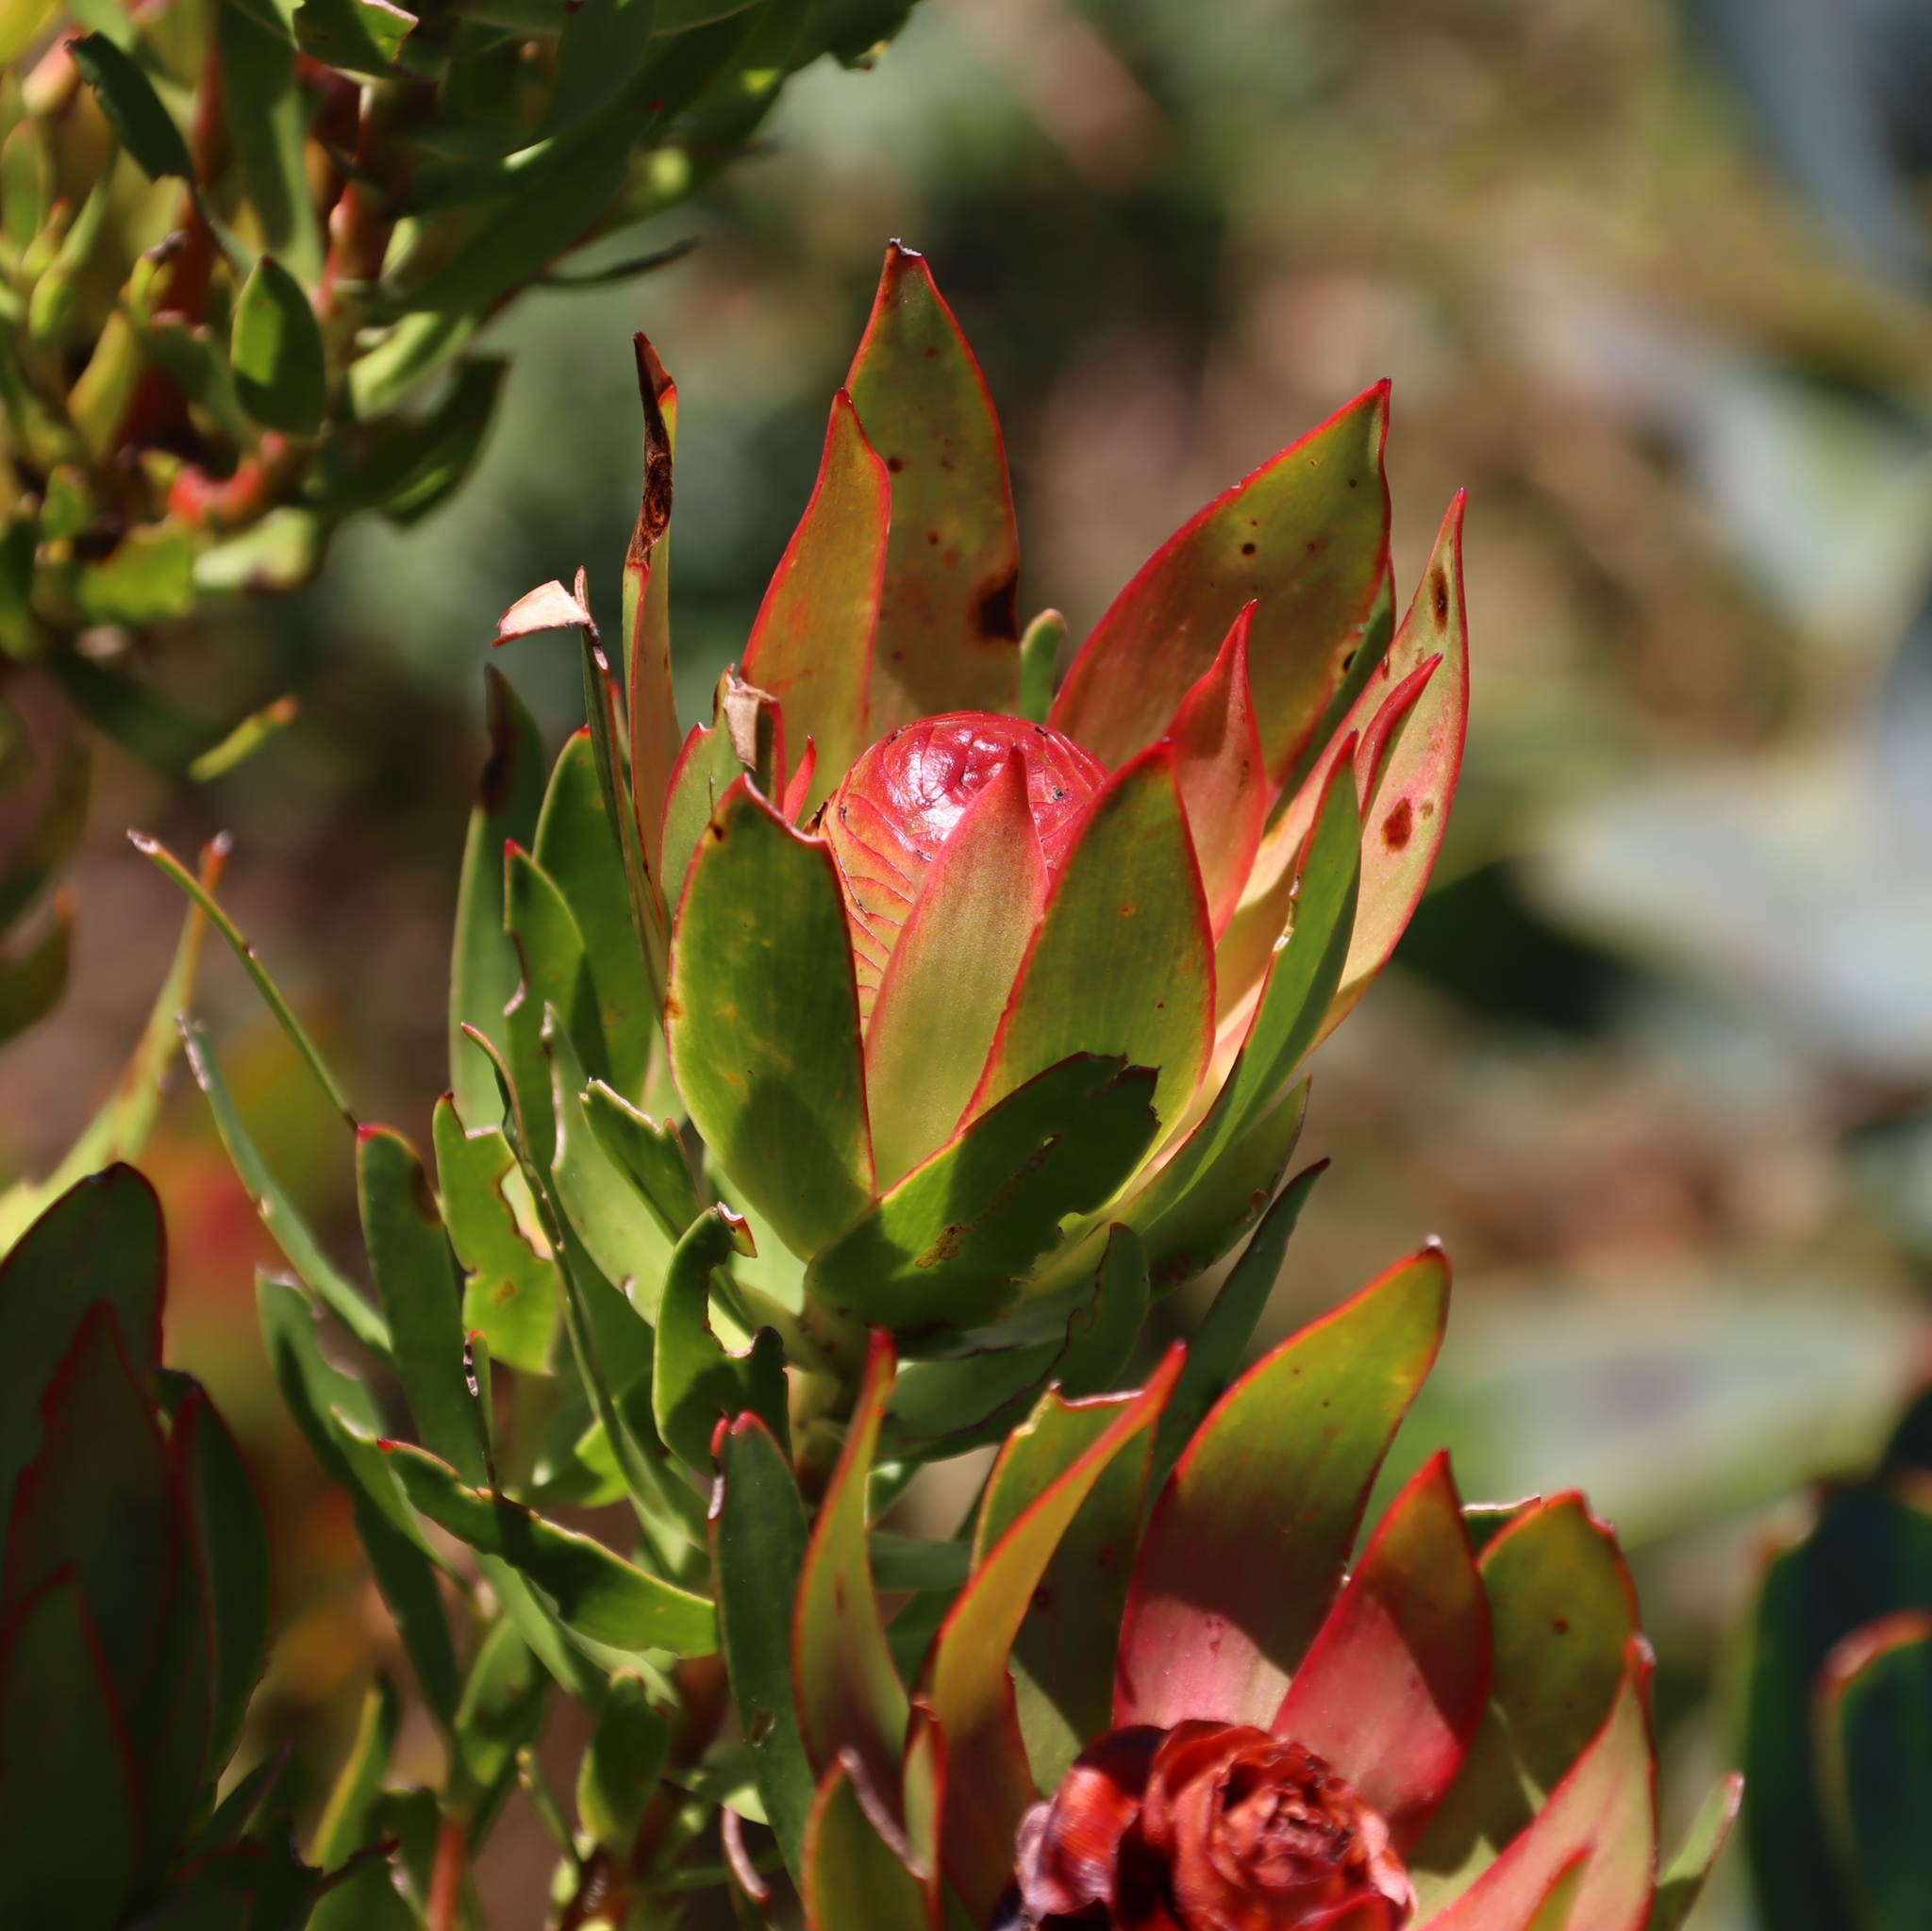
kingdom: Plantae
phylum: Tracheophyta
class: Magnoliopsida
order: Proteales
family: Proteaceae
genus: Leucadendron
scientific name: Leucadendron spissifolium
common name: Spear-leaf conebush
